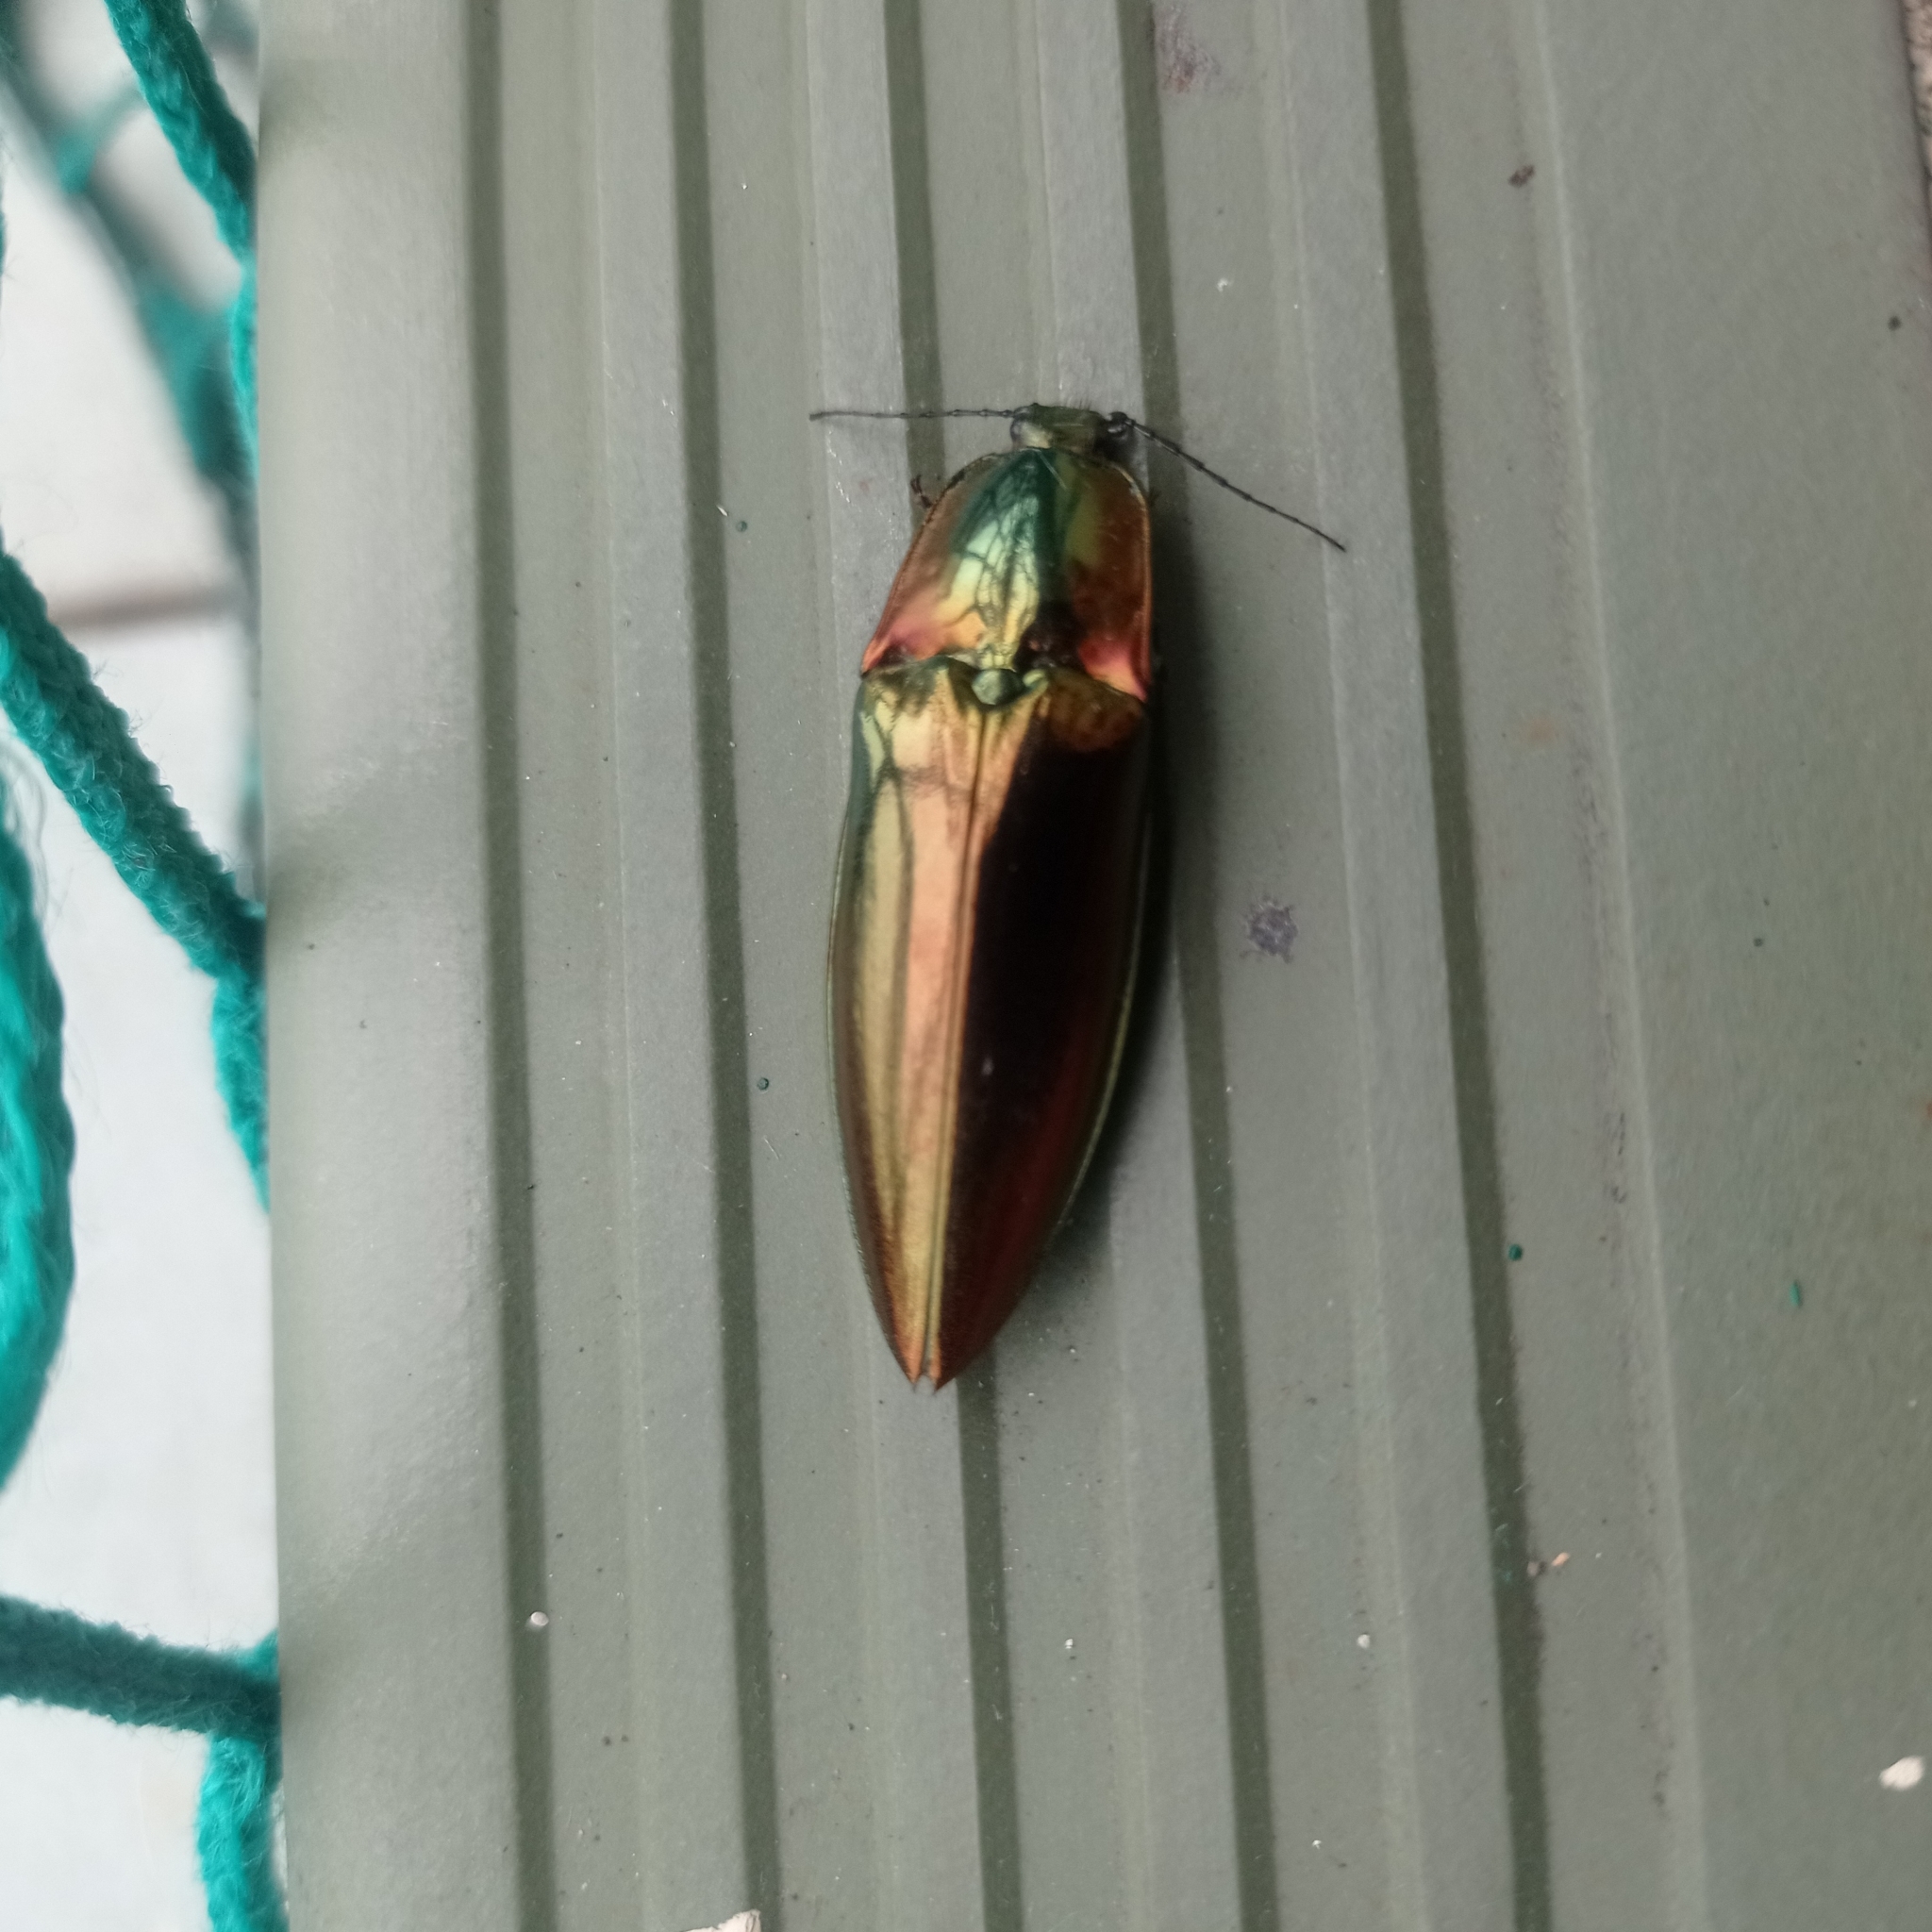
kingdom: Animalia
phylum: Arthropoda
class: Insecta
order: Coleoptera
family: Elateridae
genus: Campsosternus
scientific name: Campsosternus auratus
